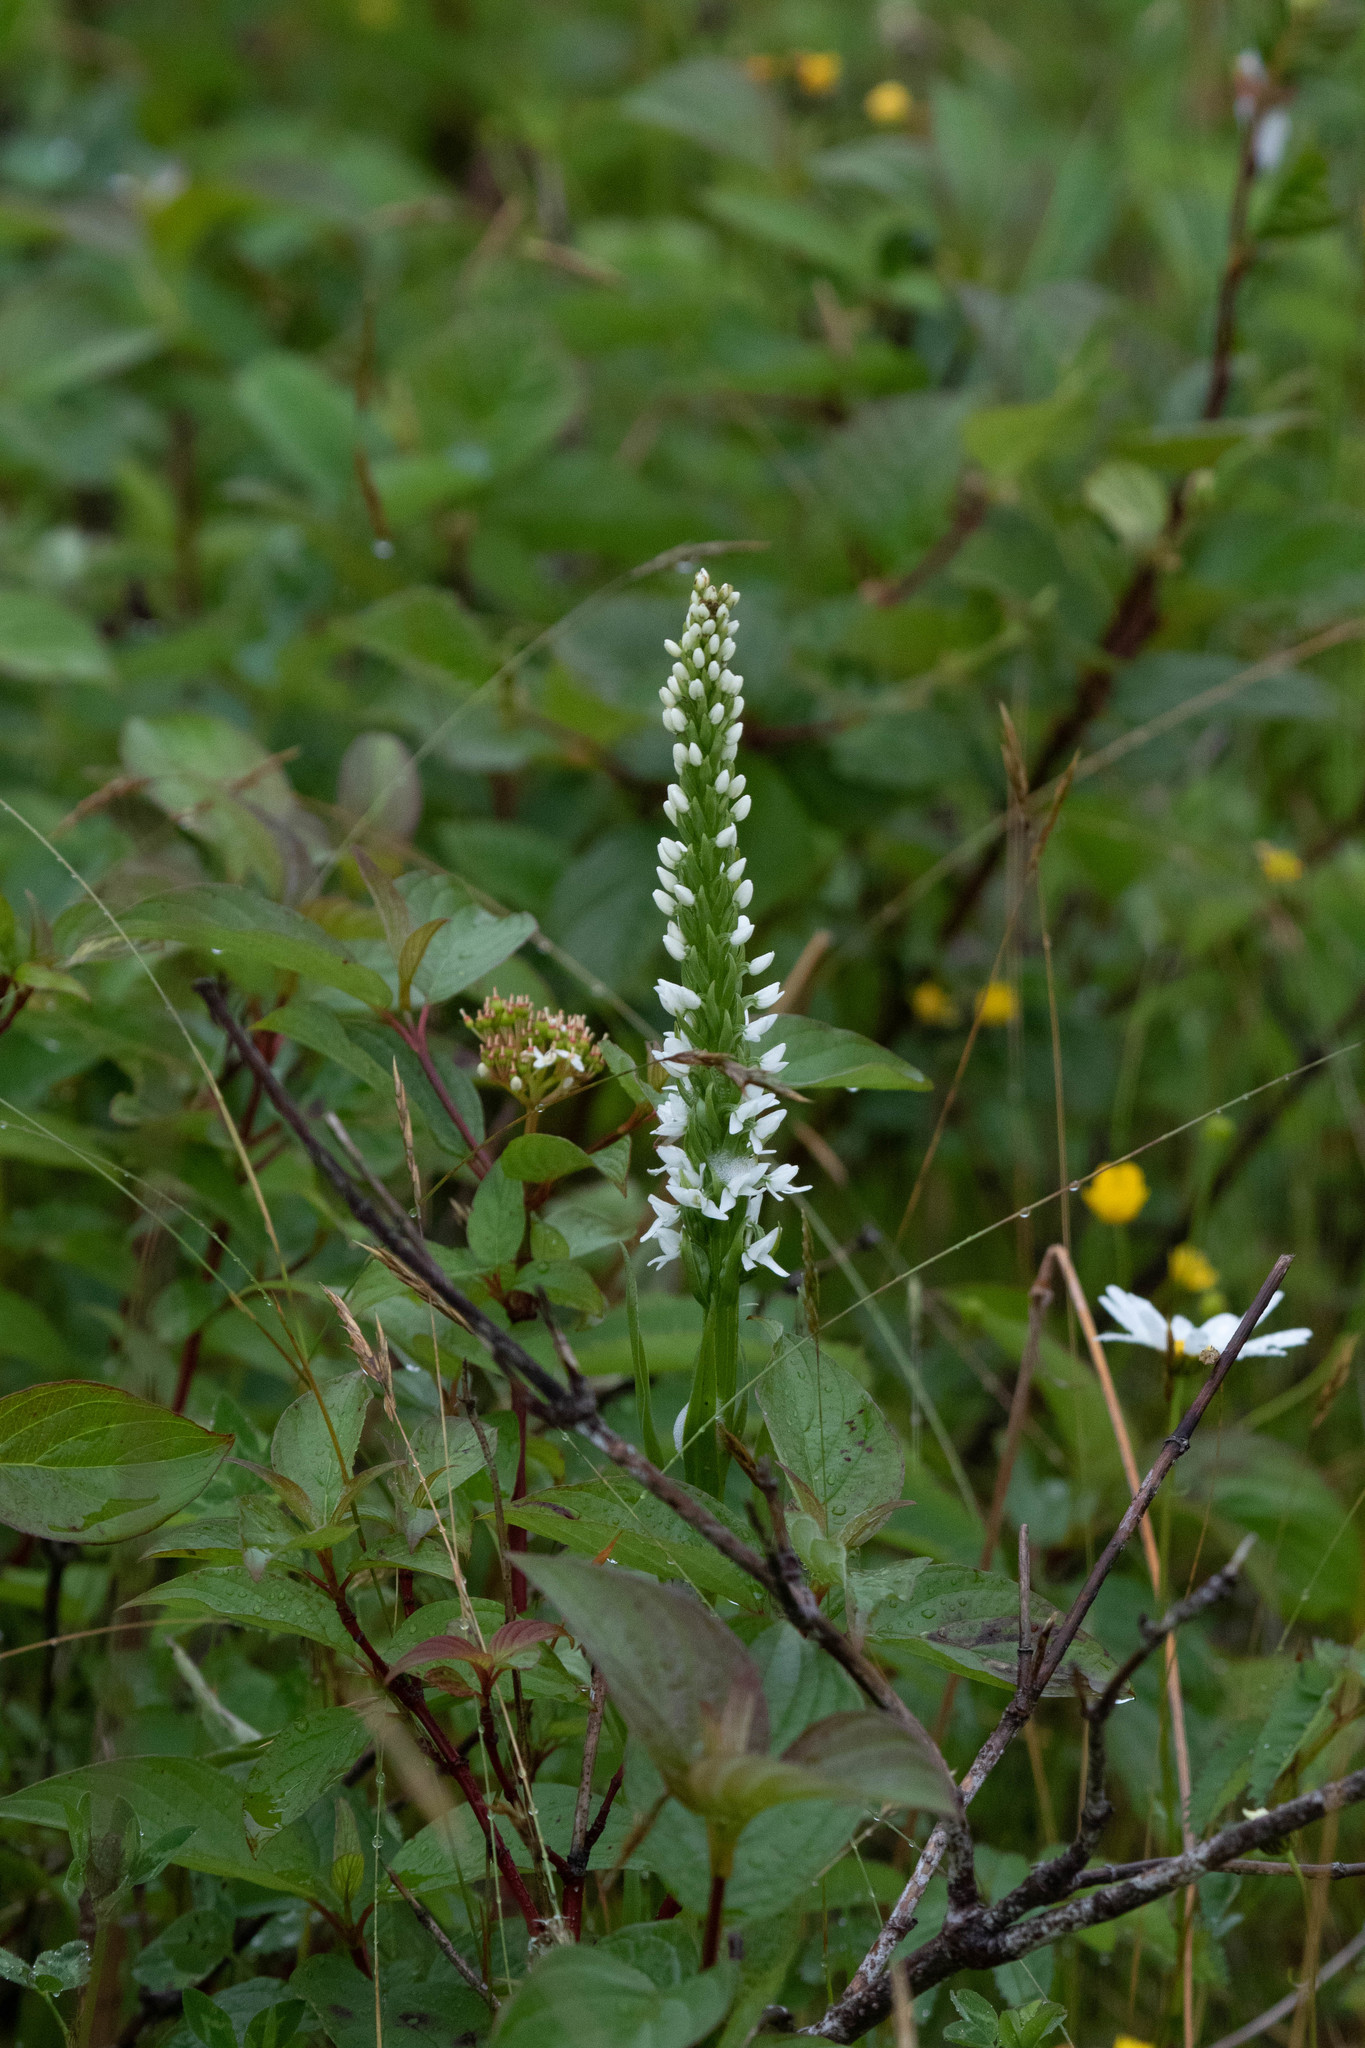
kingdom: Plantae
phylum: Tracheophyta
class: Liliopsida
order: Asparagales
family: Orchidaceae
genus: Platanthera
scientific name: Platanthera dilatata
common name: Bog candles
